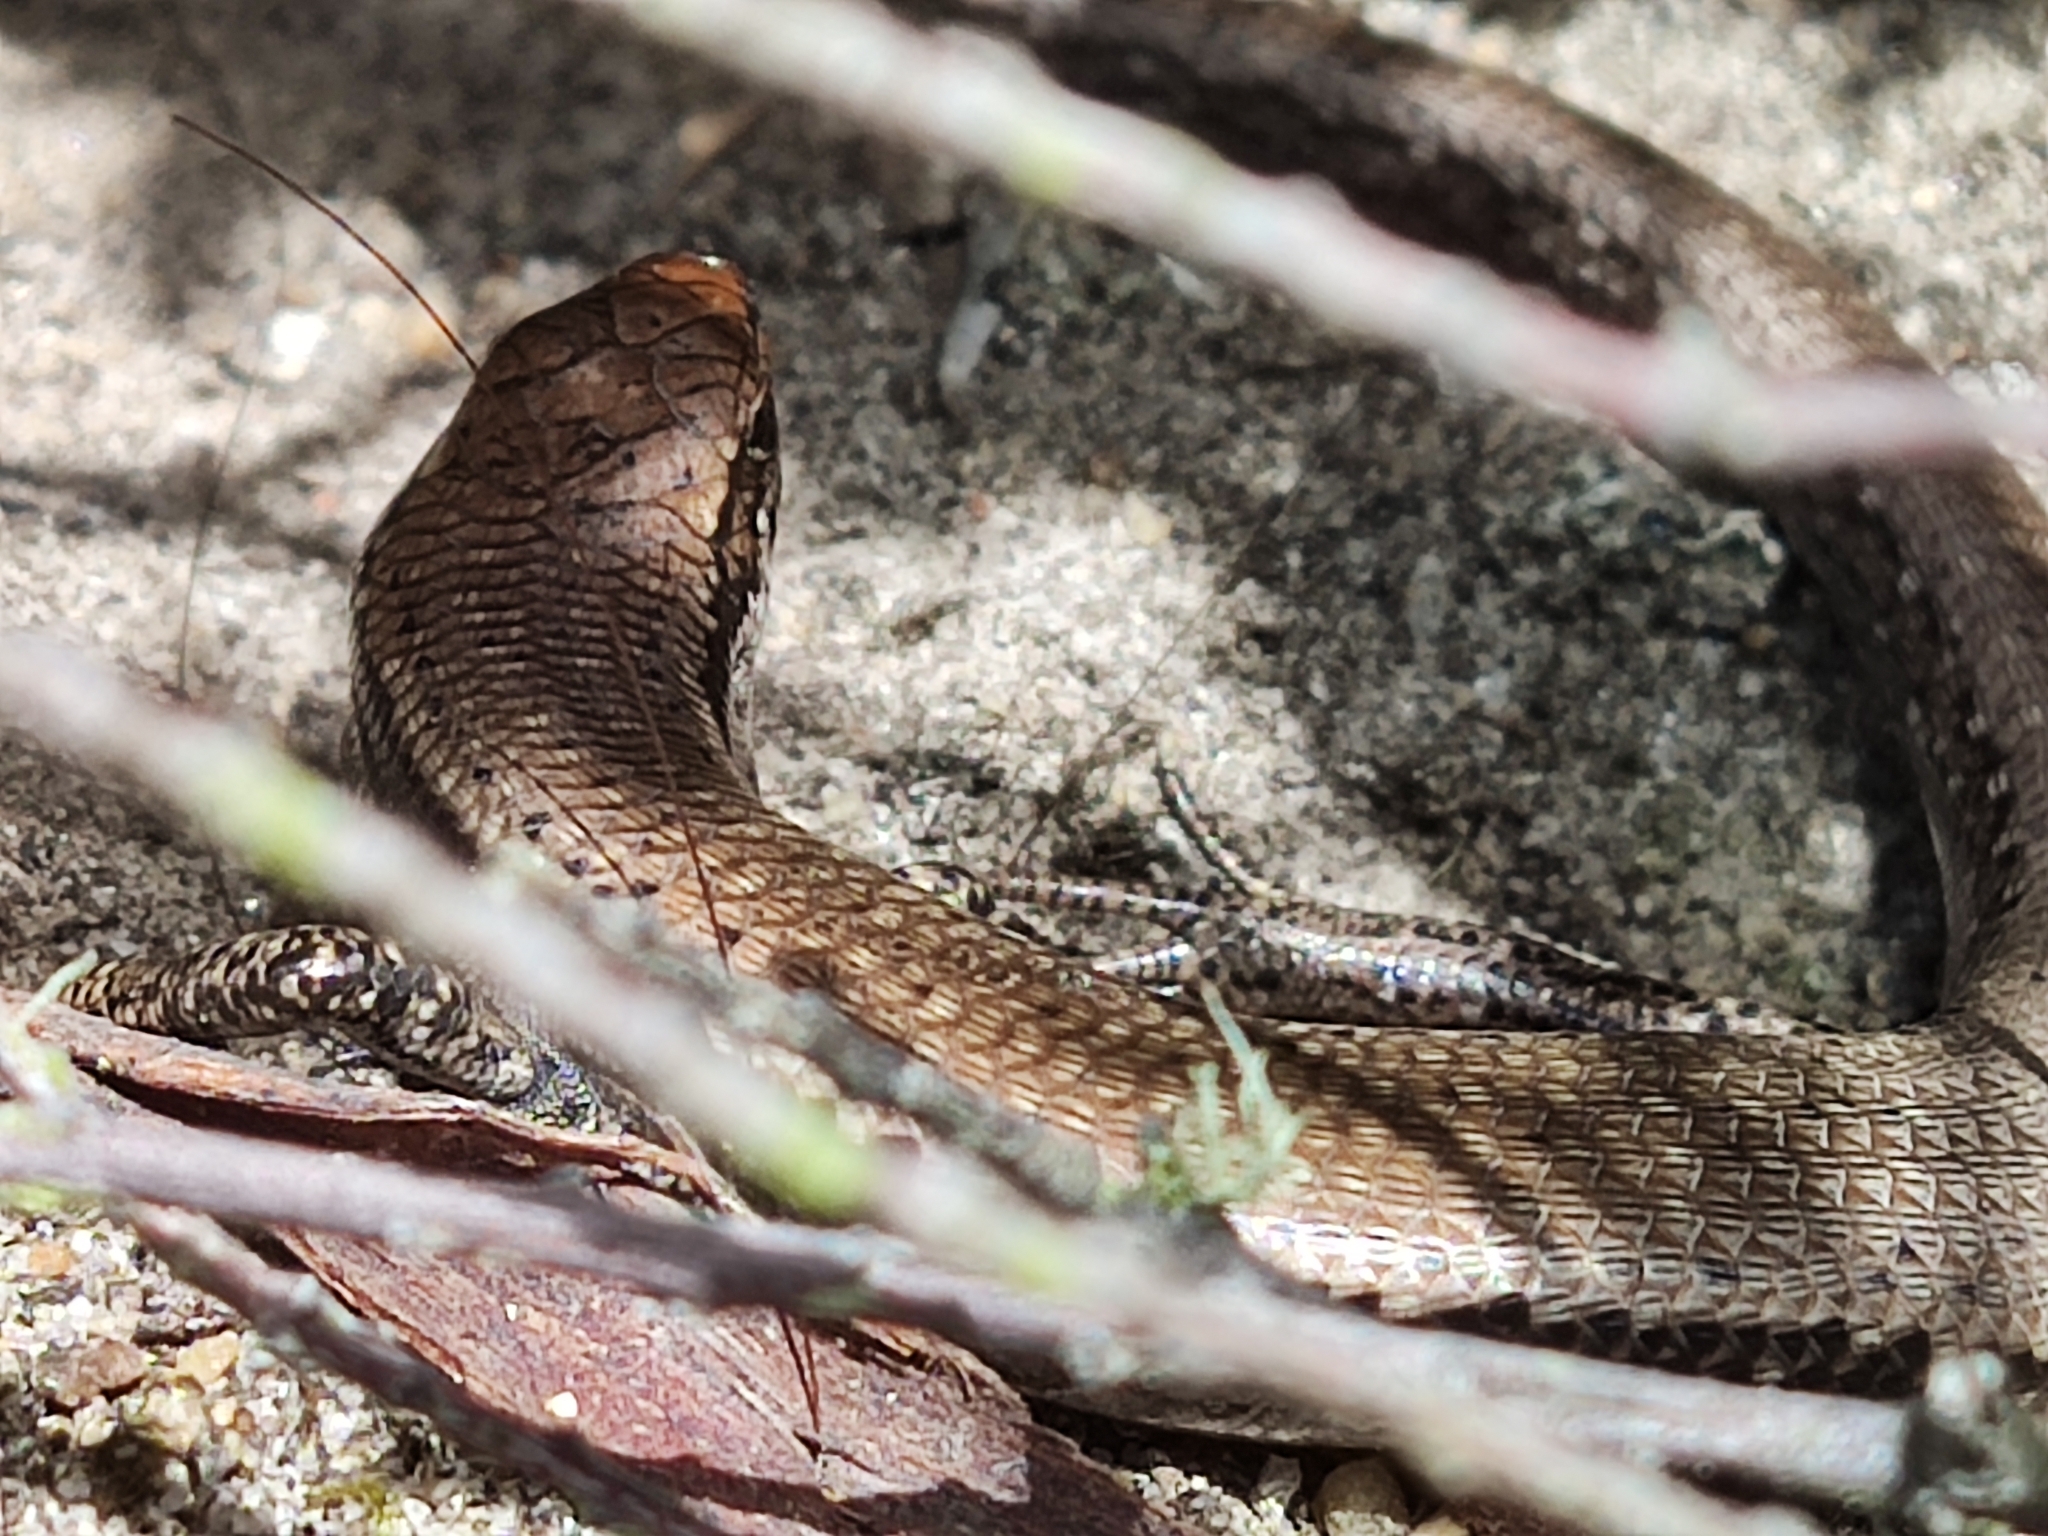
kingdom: Animalia
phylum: Chordata
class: Squamata
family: Scincidae
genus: Carinascincus
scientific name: Carinascincus metallicus
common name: Metallic cool-skink
